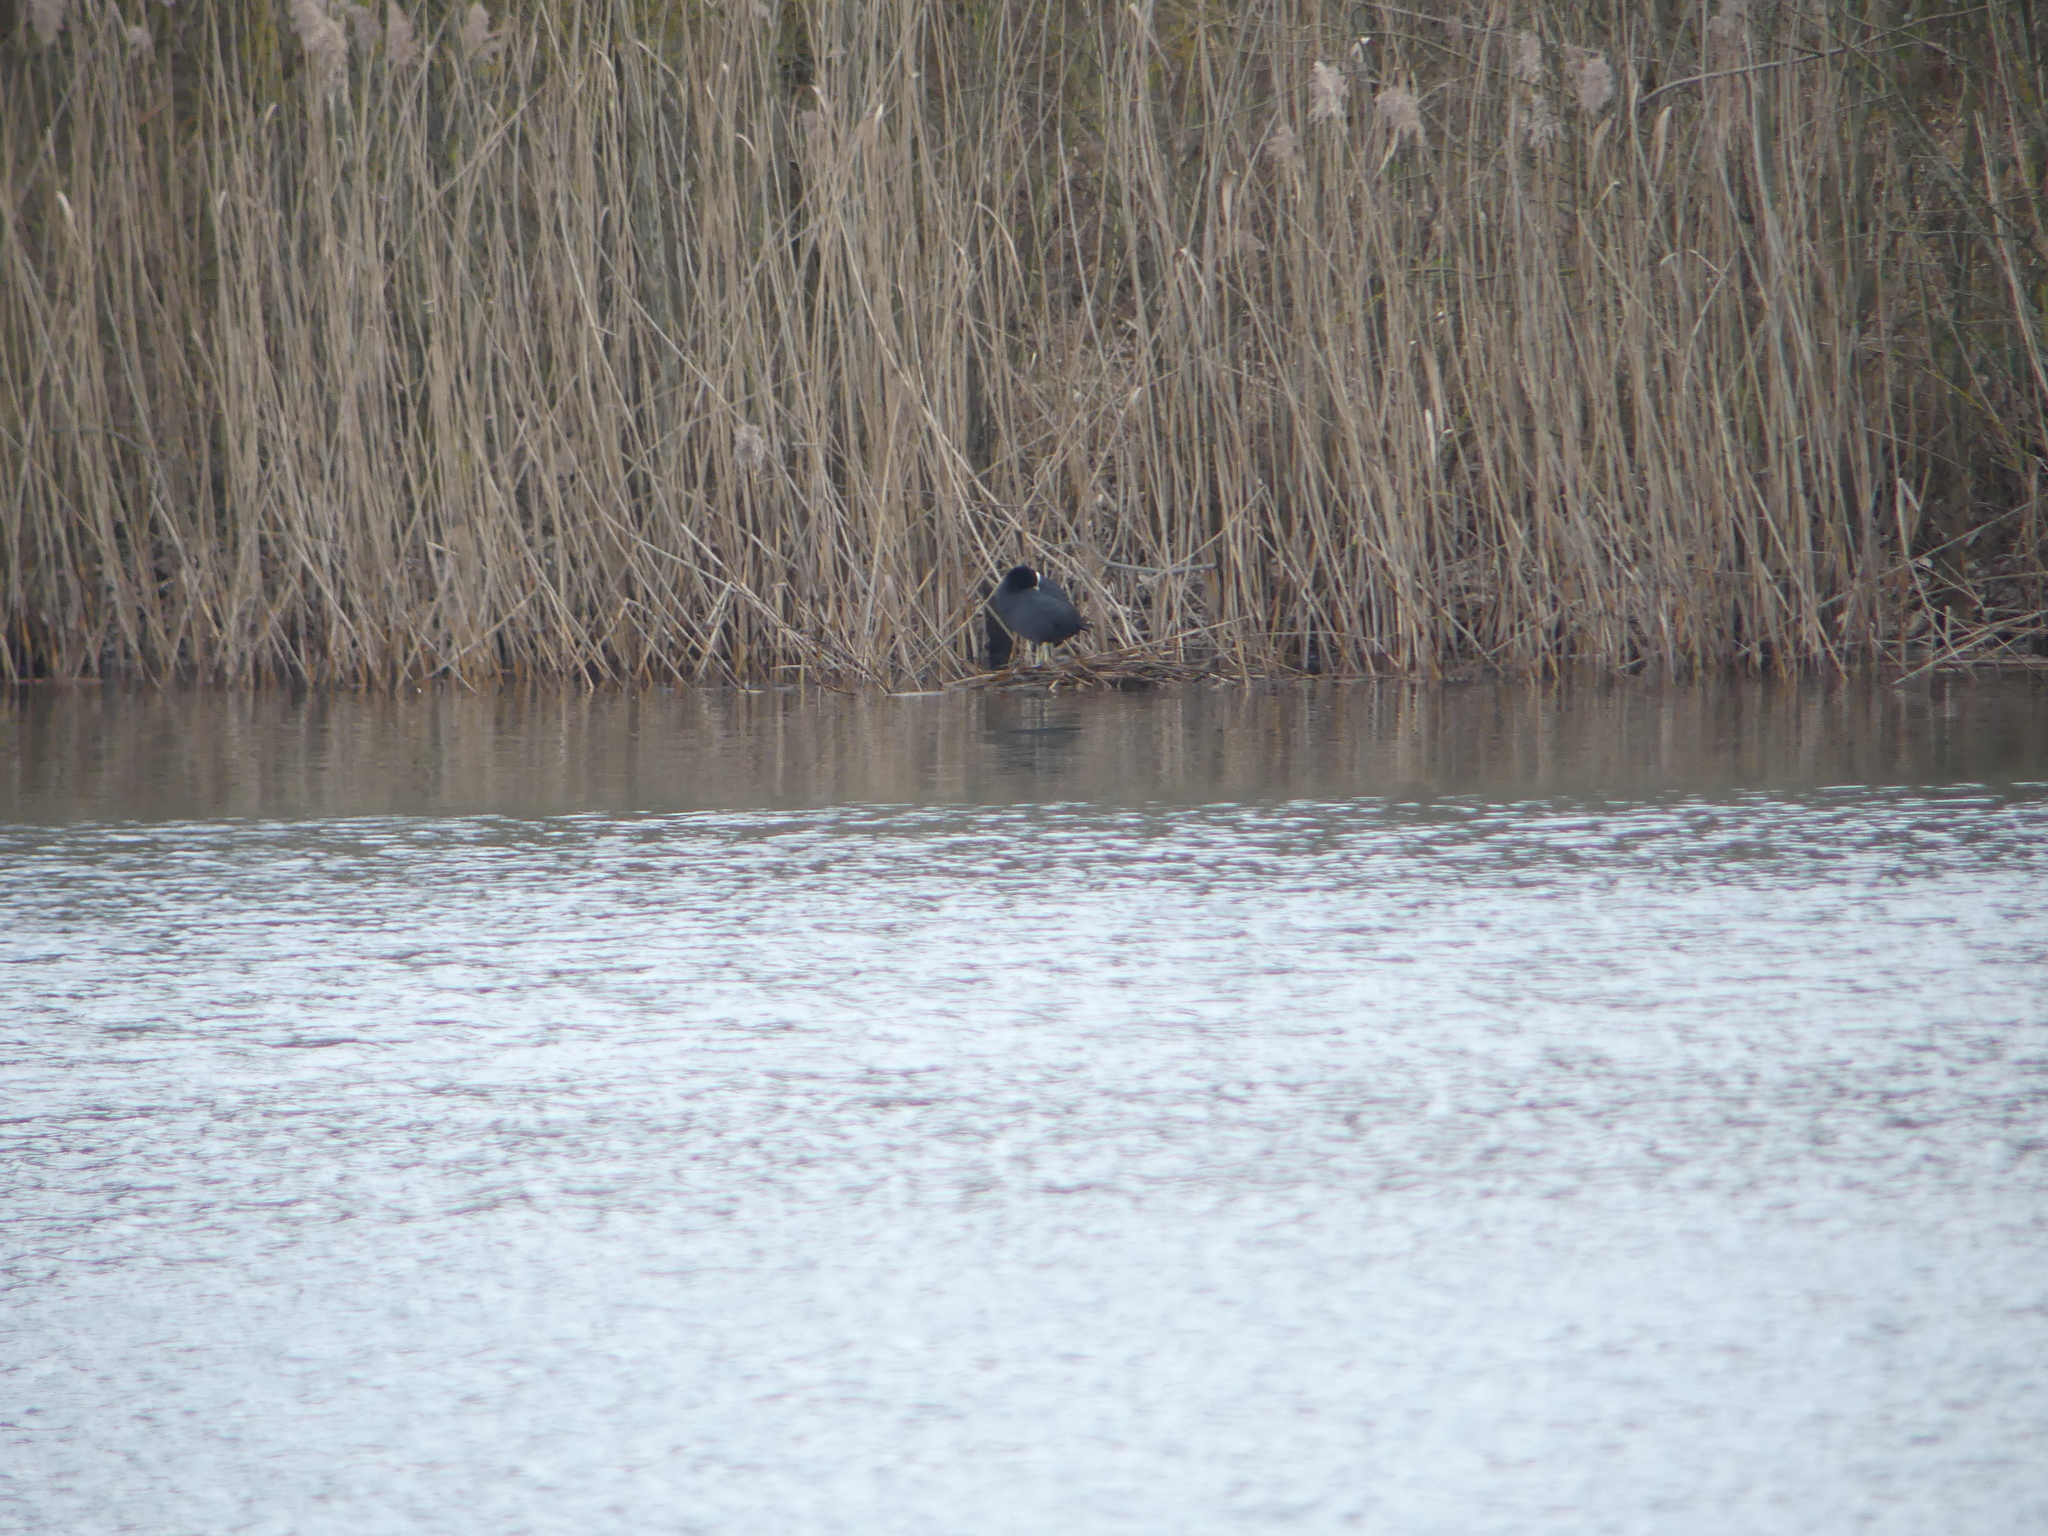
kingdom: Animalia
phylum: Chordata
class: Aves
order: Gruiformes
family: Rallidae
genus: Fulica
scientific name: Fulica atra
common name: Eurasian coot
